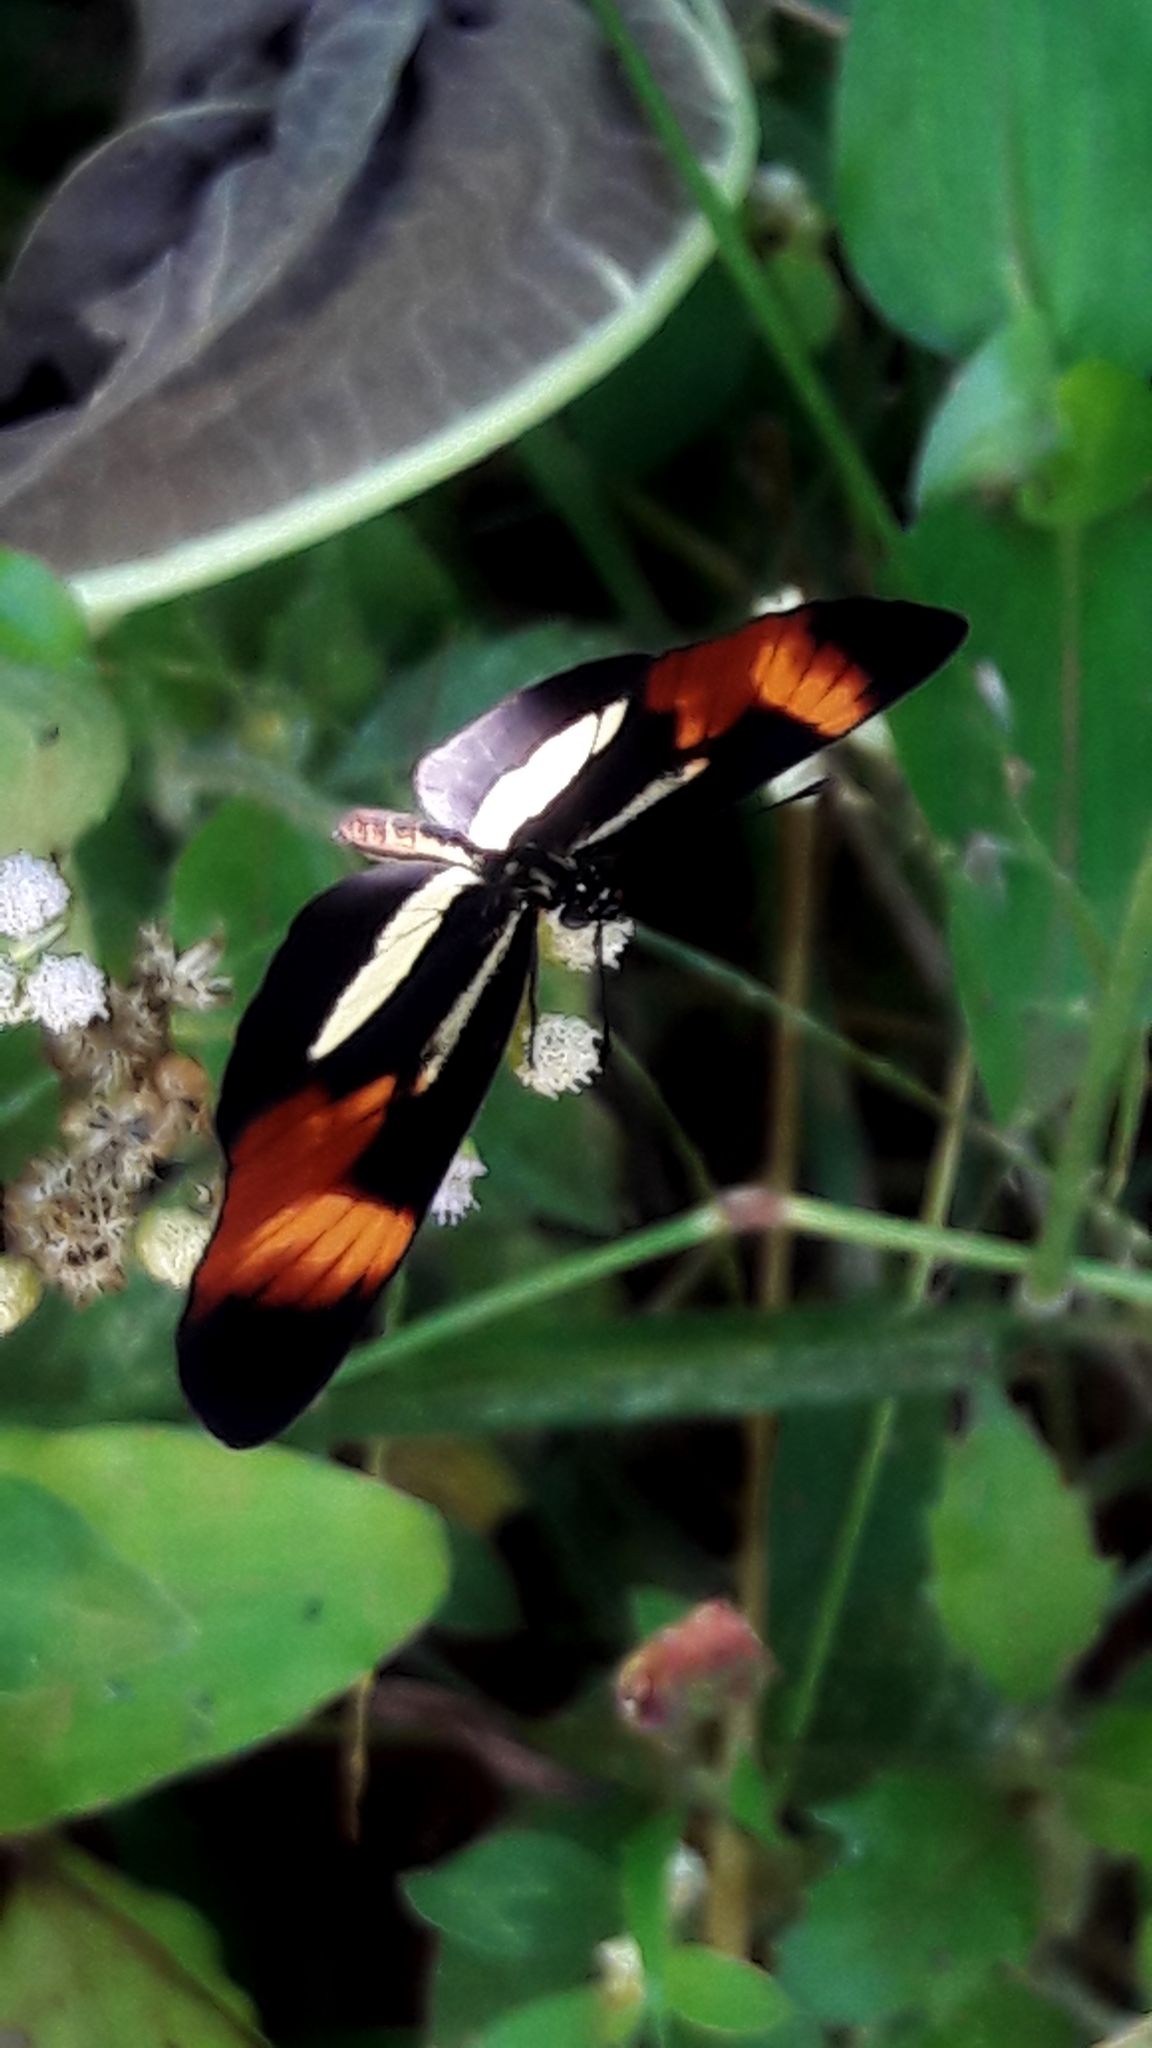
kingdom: Animalia
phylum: Arthropoda
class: Insecta
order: Lepidoptera
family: Nymphalidae
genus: Eresia
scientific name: Eresia lansdorfi
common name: Lansdorf's crescent
